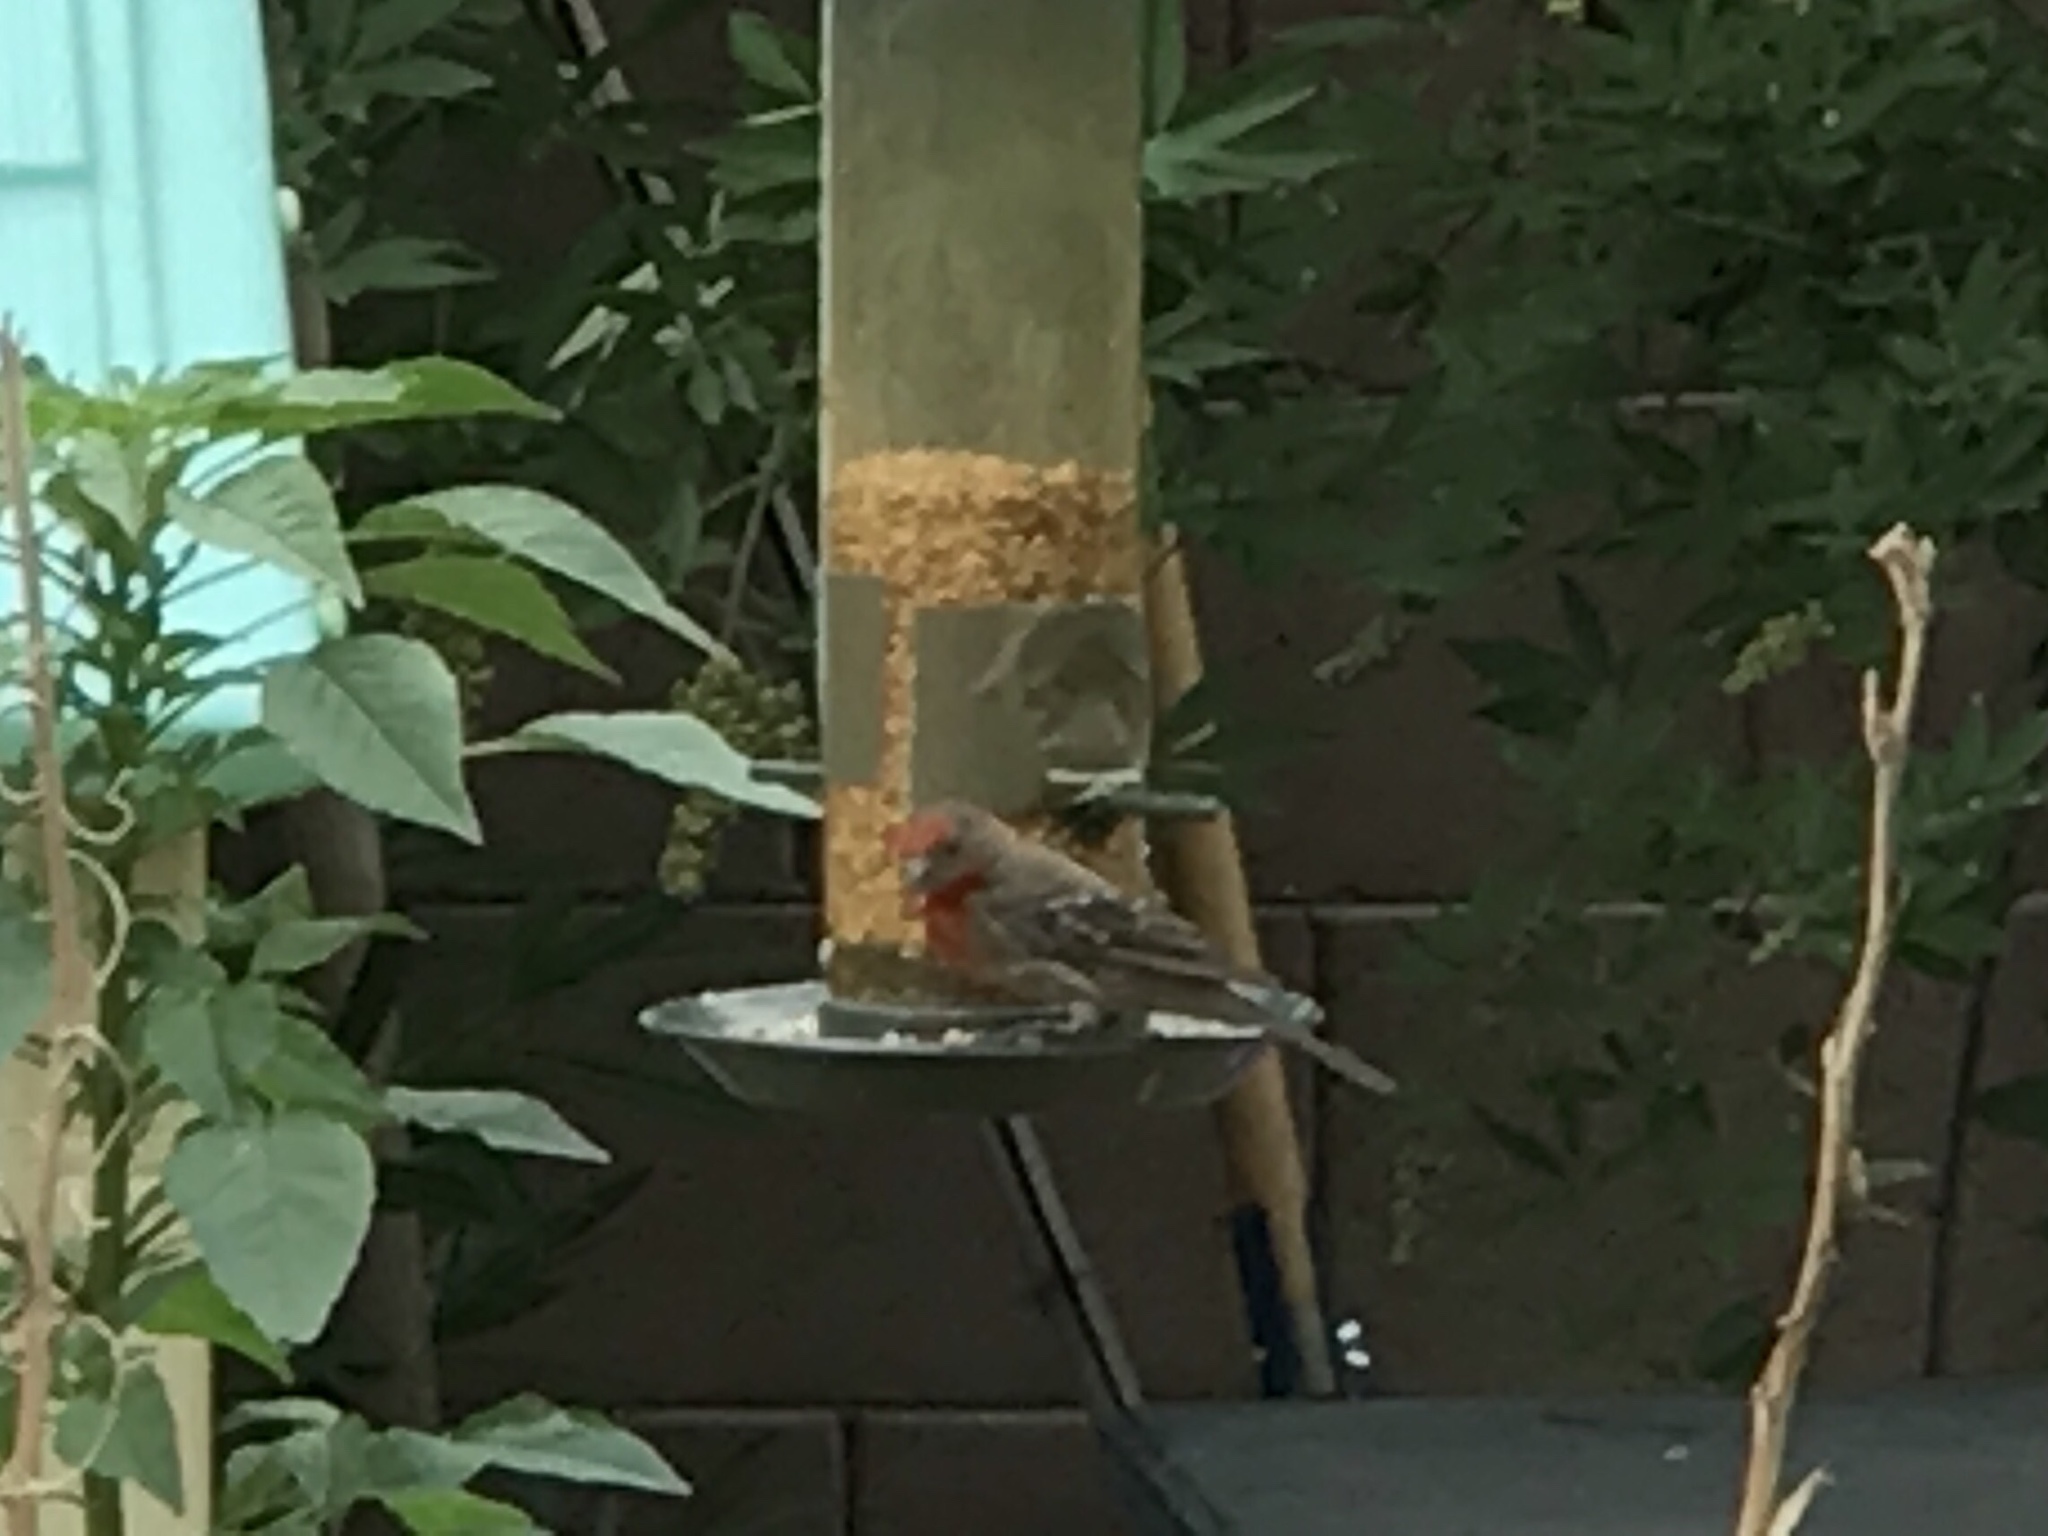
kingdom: Animalia
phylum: Chordata
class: Aves
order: Passeriformes
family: Fringillidae
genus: Haemorhous
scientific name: Haemorhous mexicanus
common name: House finch
